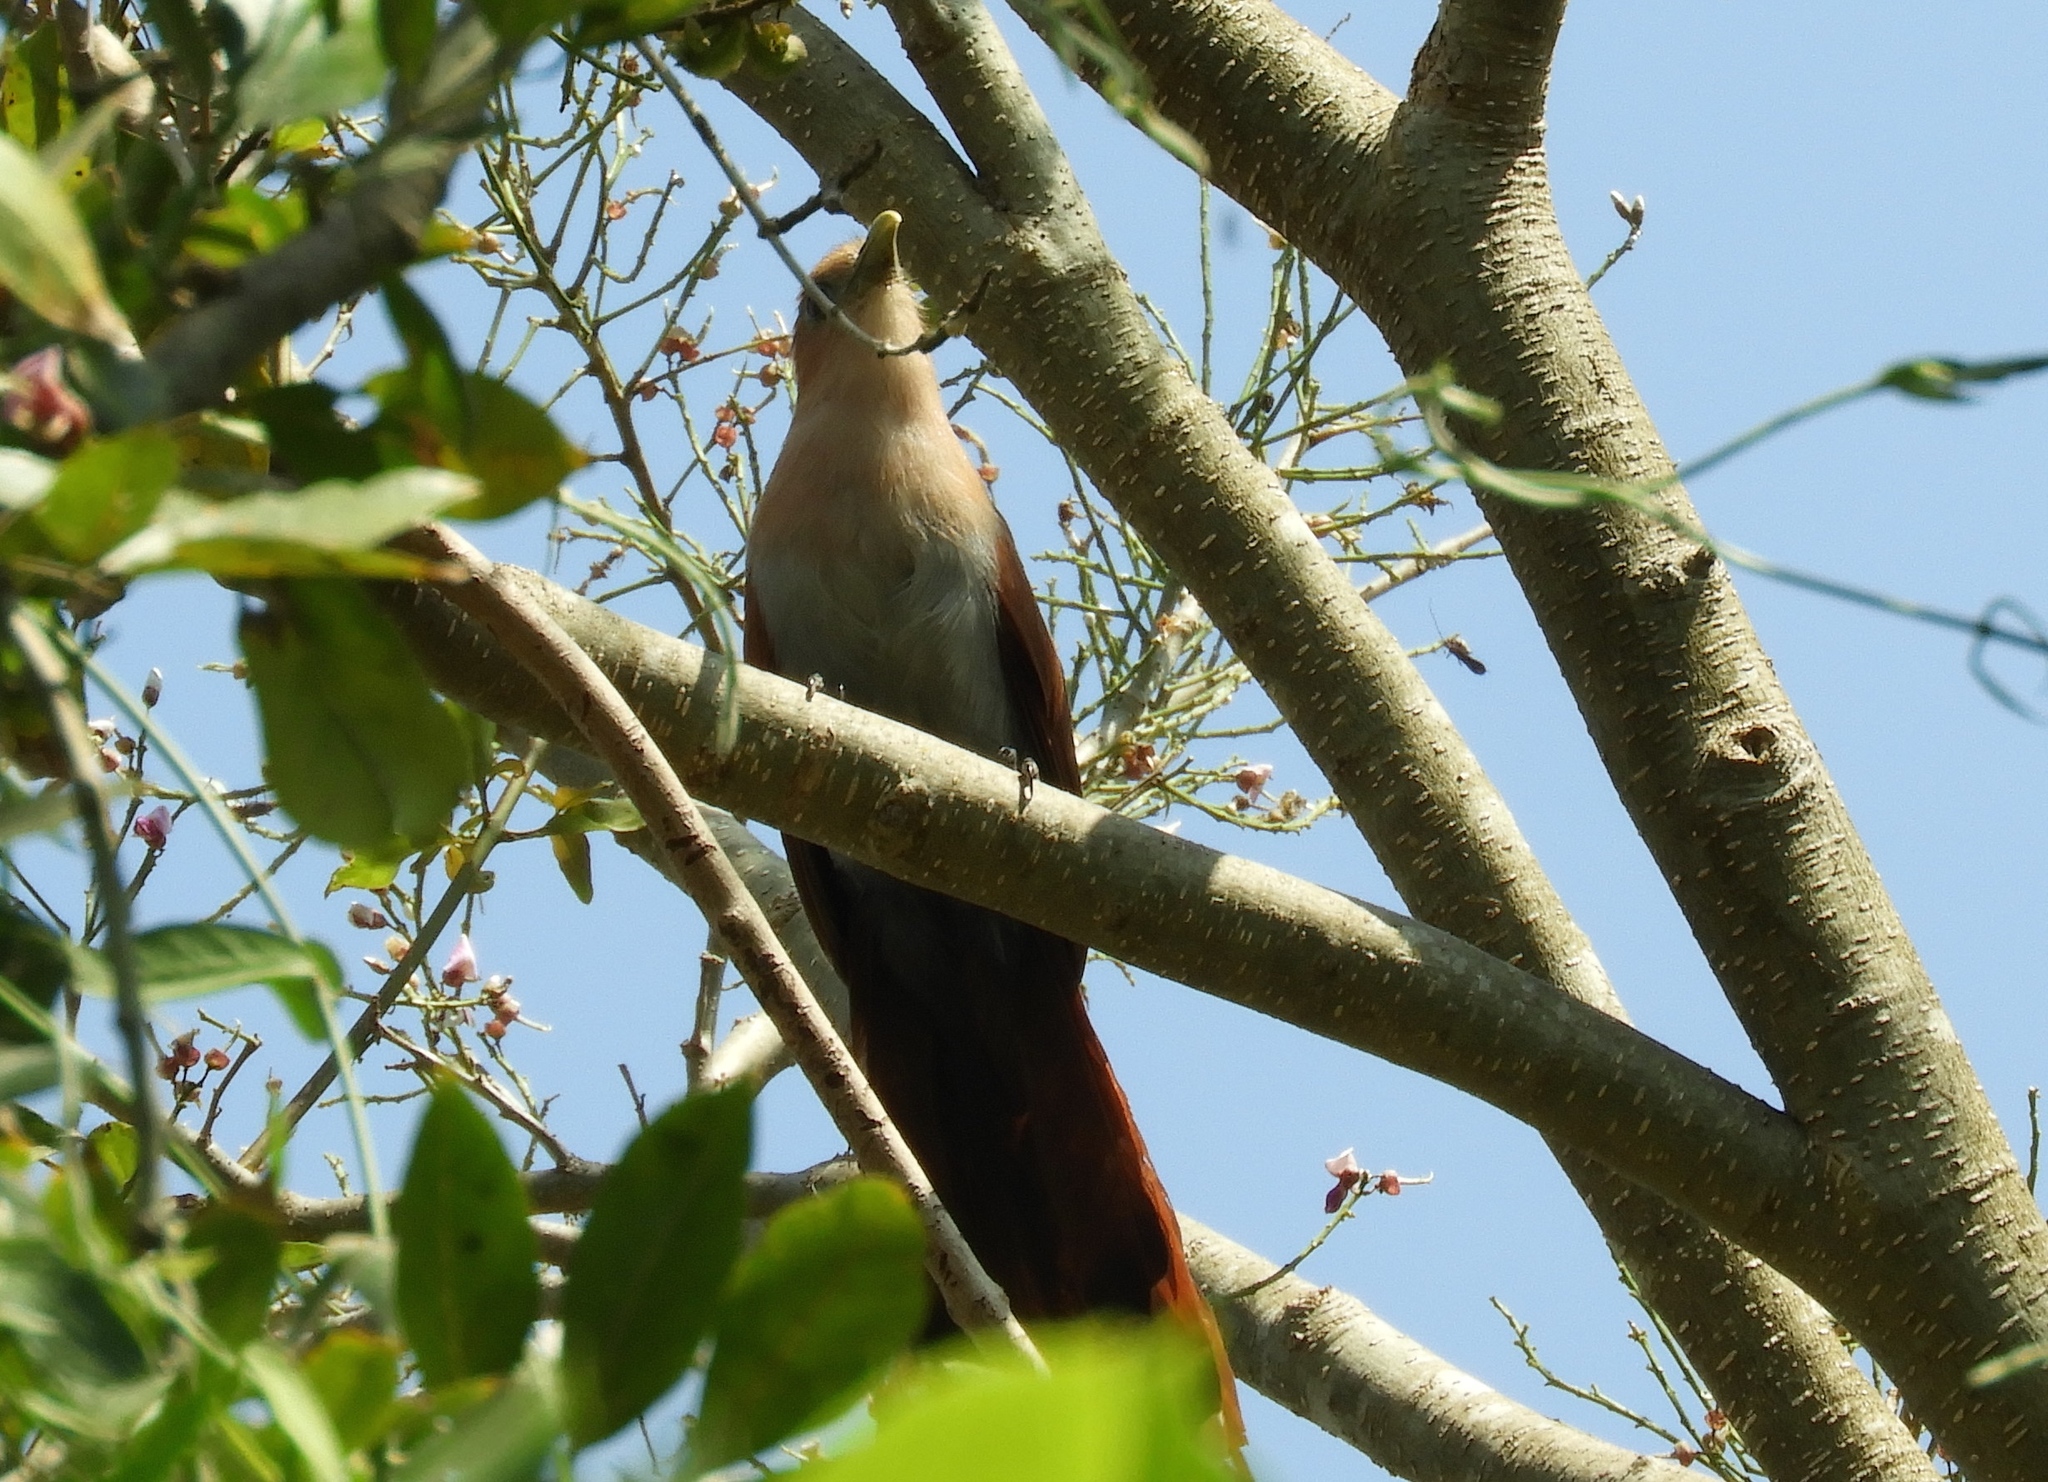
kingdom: Animalia
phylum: Chordata
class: Aves
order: Cuculiformes
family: Cuculidae
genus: Piaya
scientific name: Piaya cayana
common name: Squirrel cuckoo
